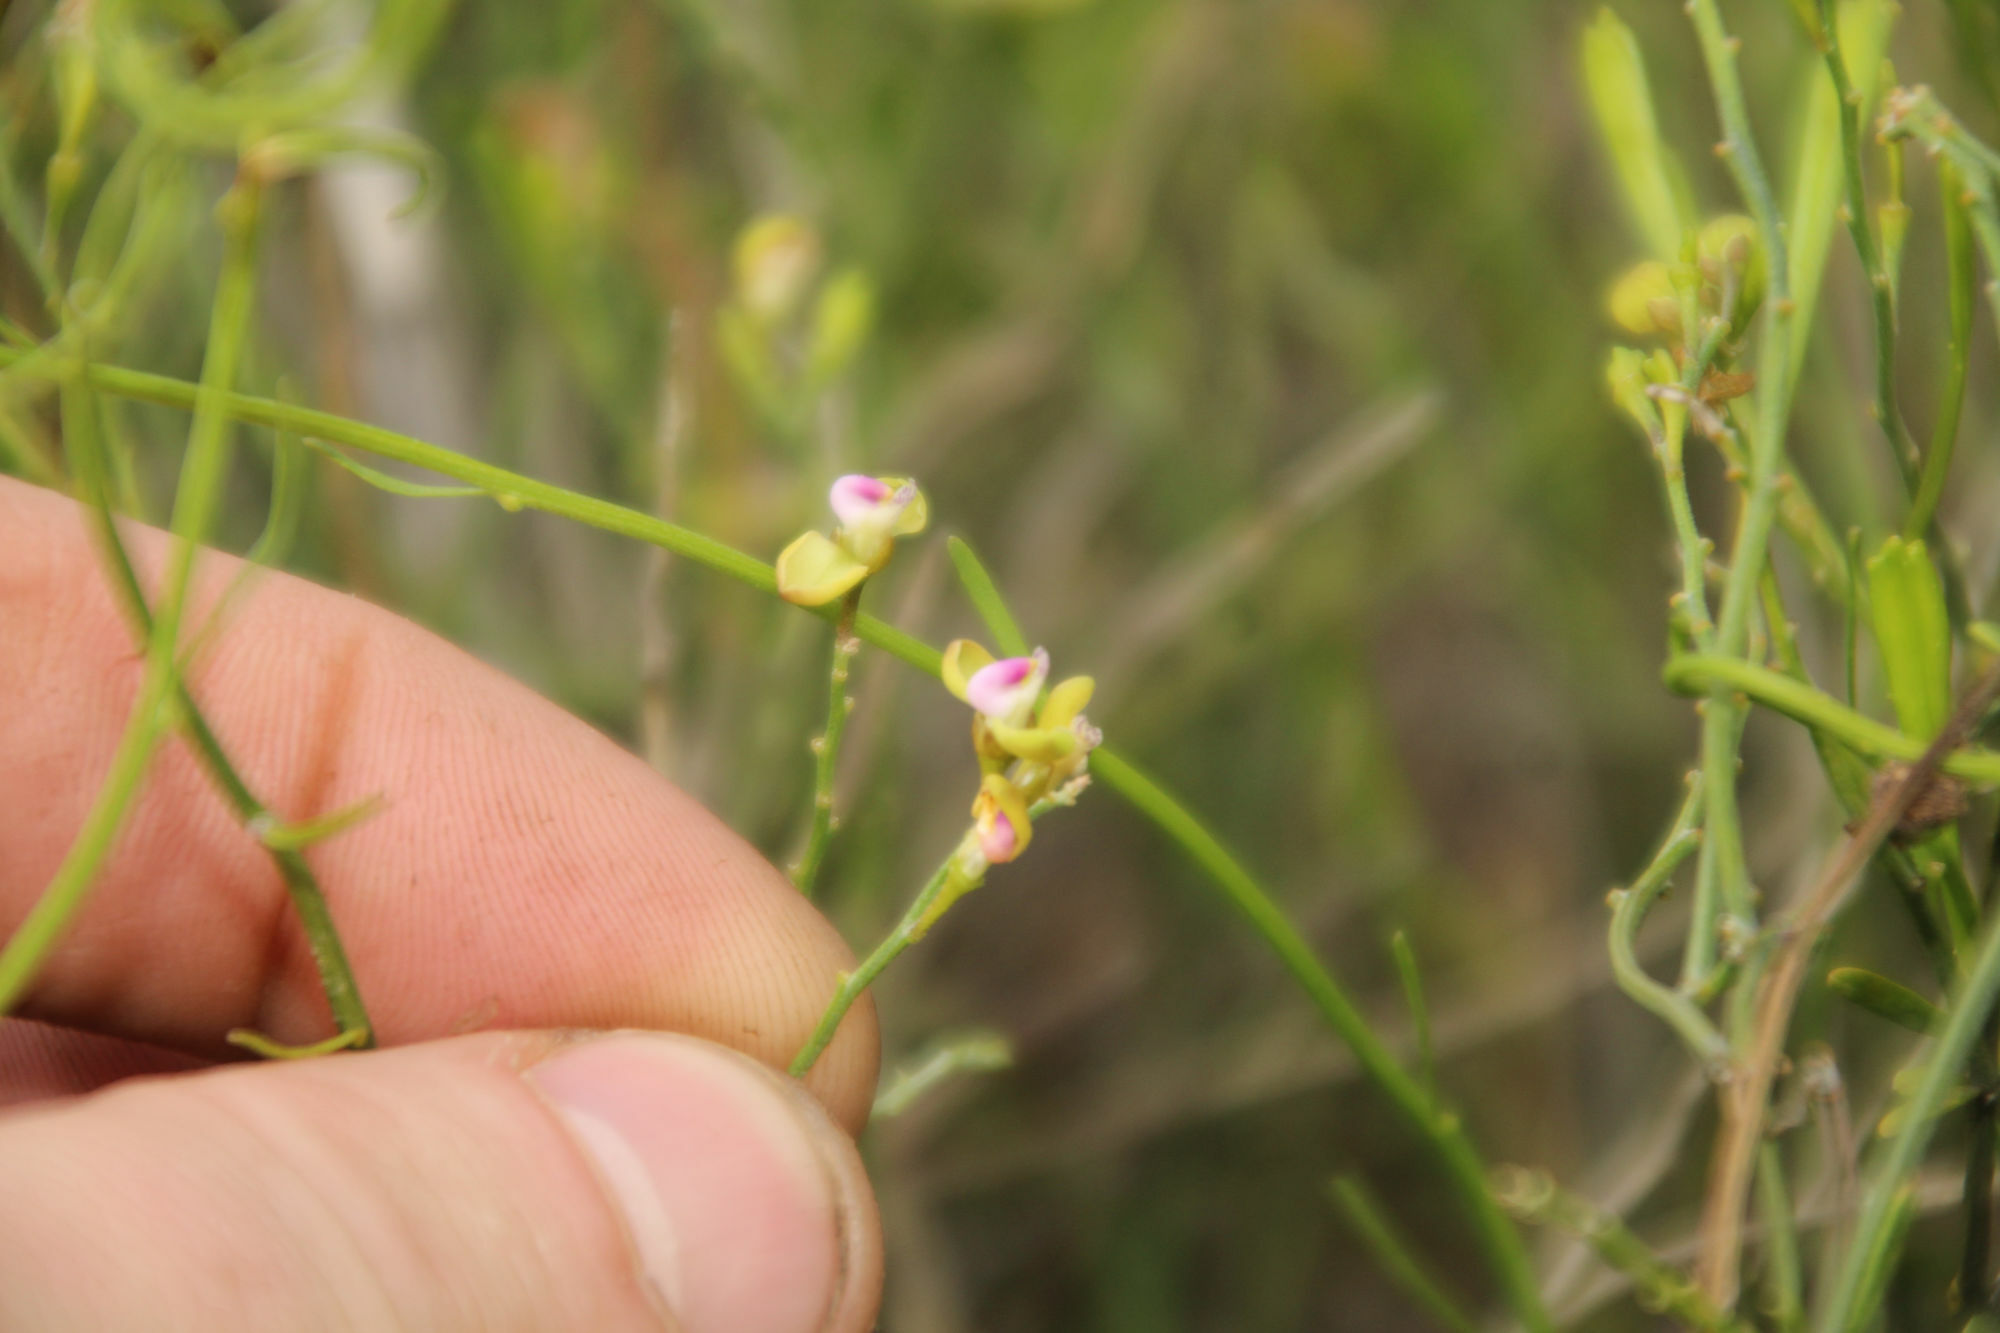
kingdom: Plantae
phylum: Tracheophyta
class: Magnoliopsida
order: Fabales
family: Polygalaceae
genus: Comesperma
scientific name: Comesperma integerrimum
